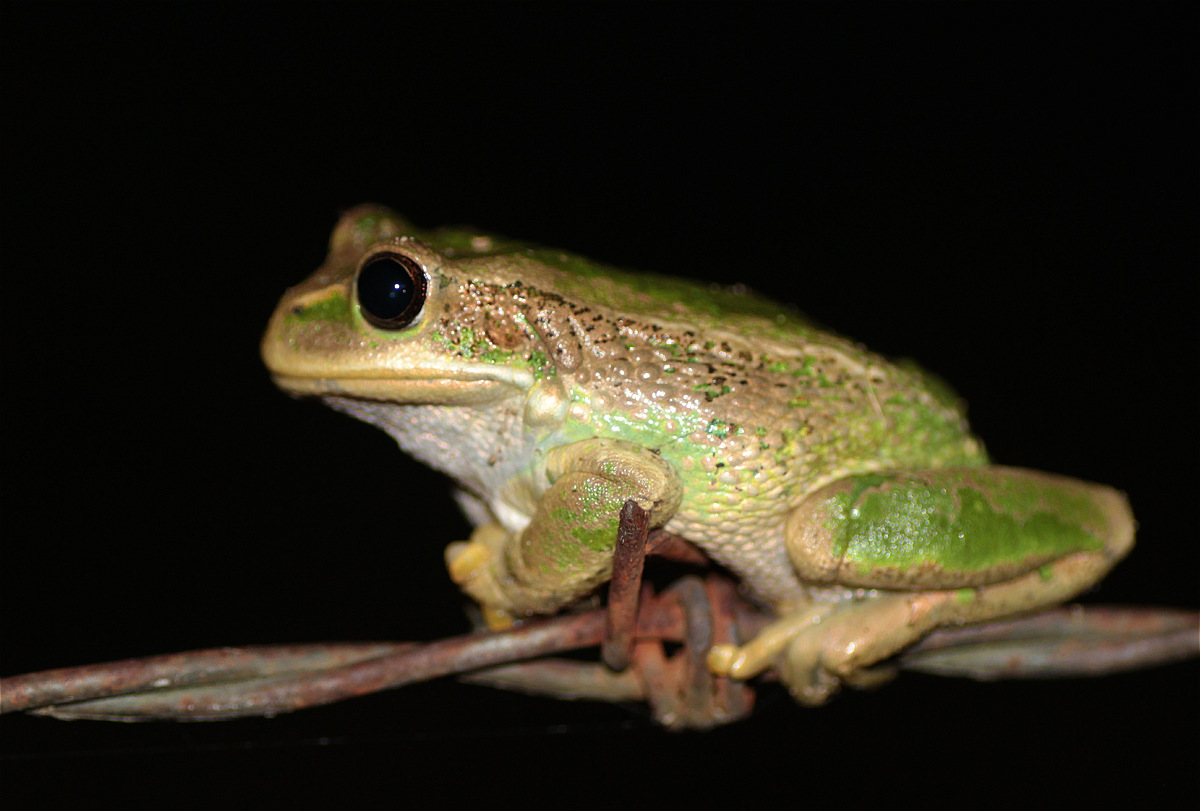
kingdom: Animalia
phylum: Chordata
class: Amphibia
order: Anura
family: Hemiphractidae
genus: Gastrotheca
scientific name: Gastrotheca cuencana
